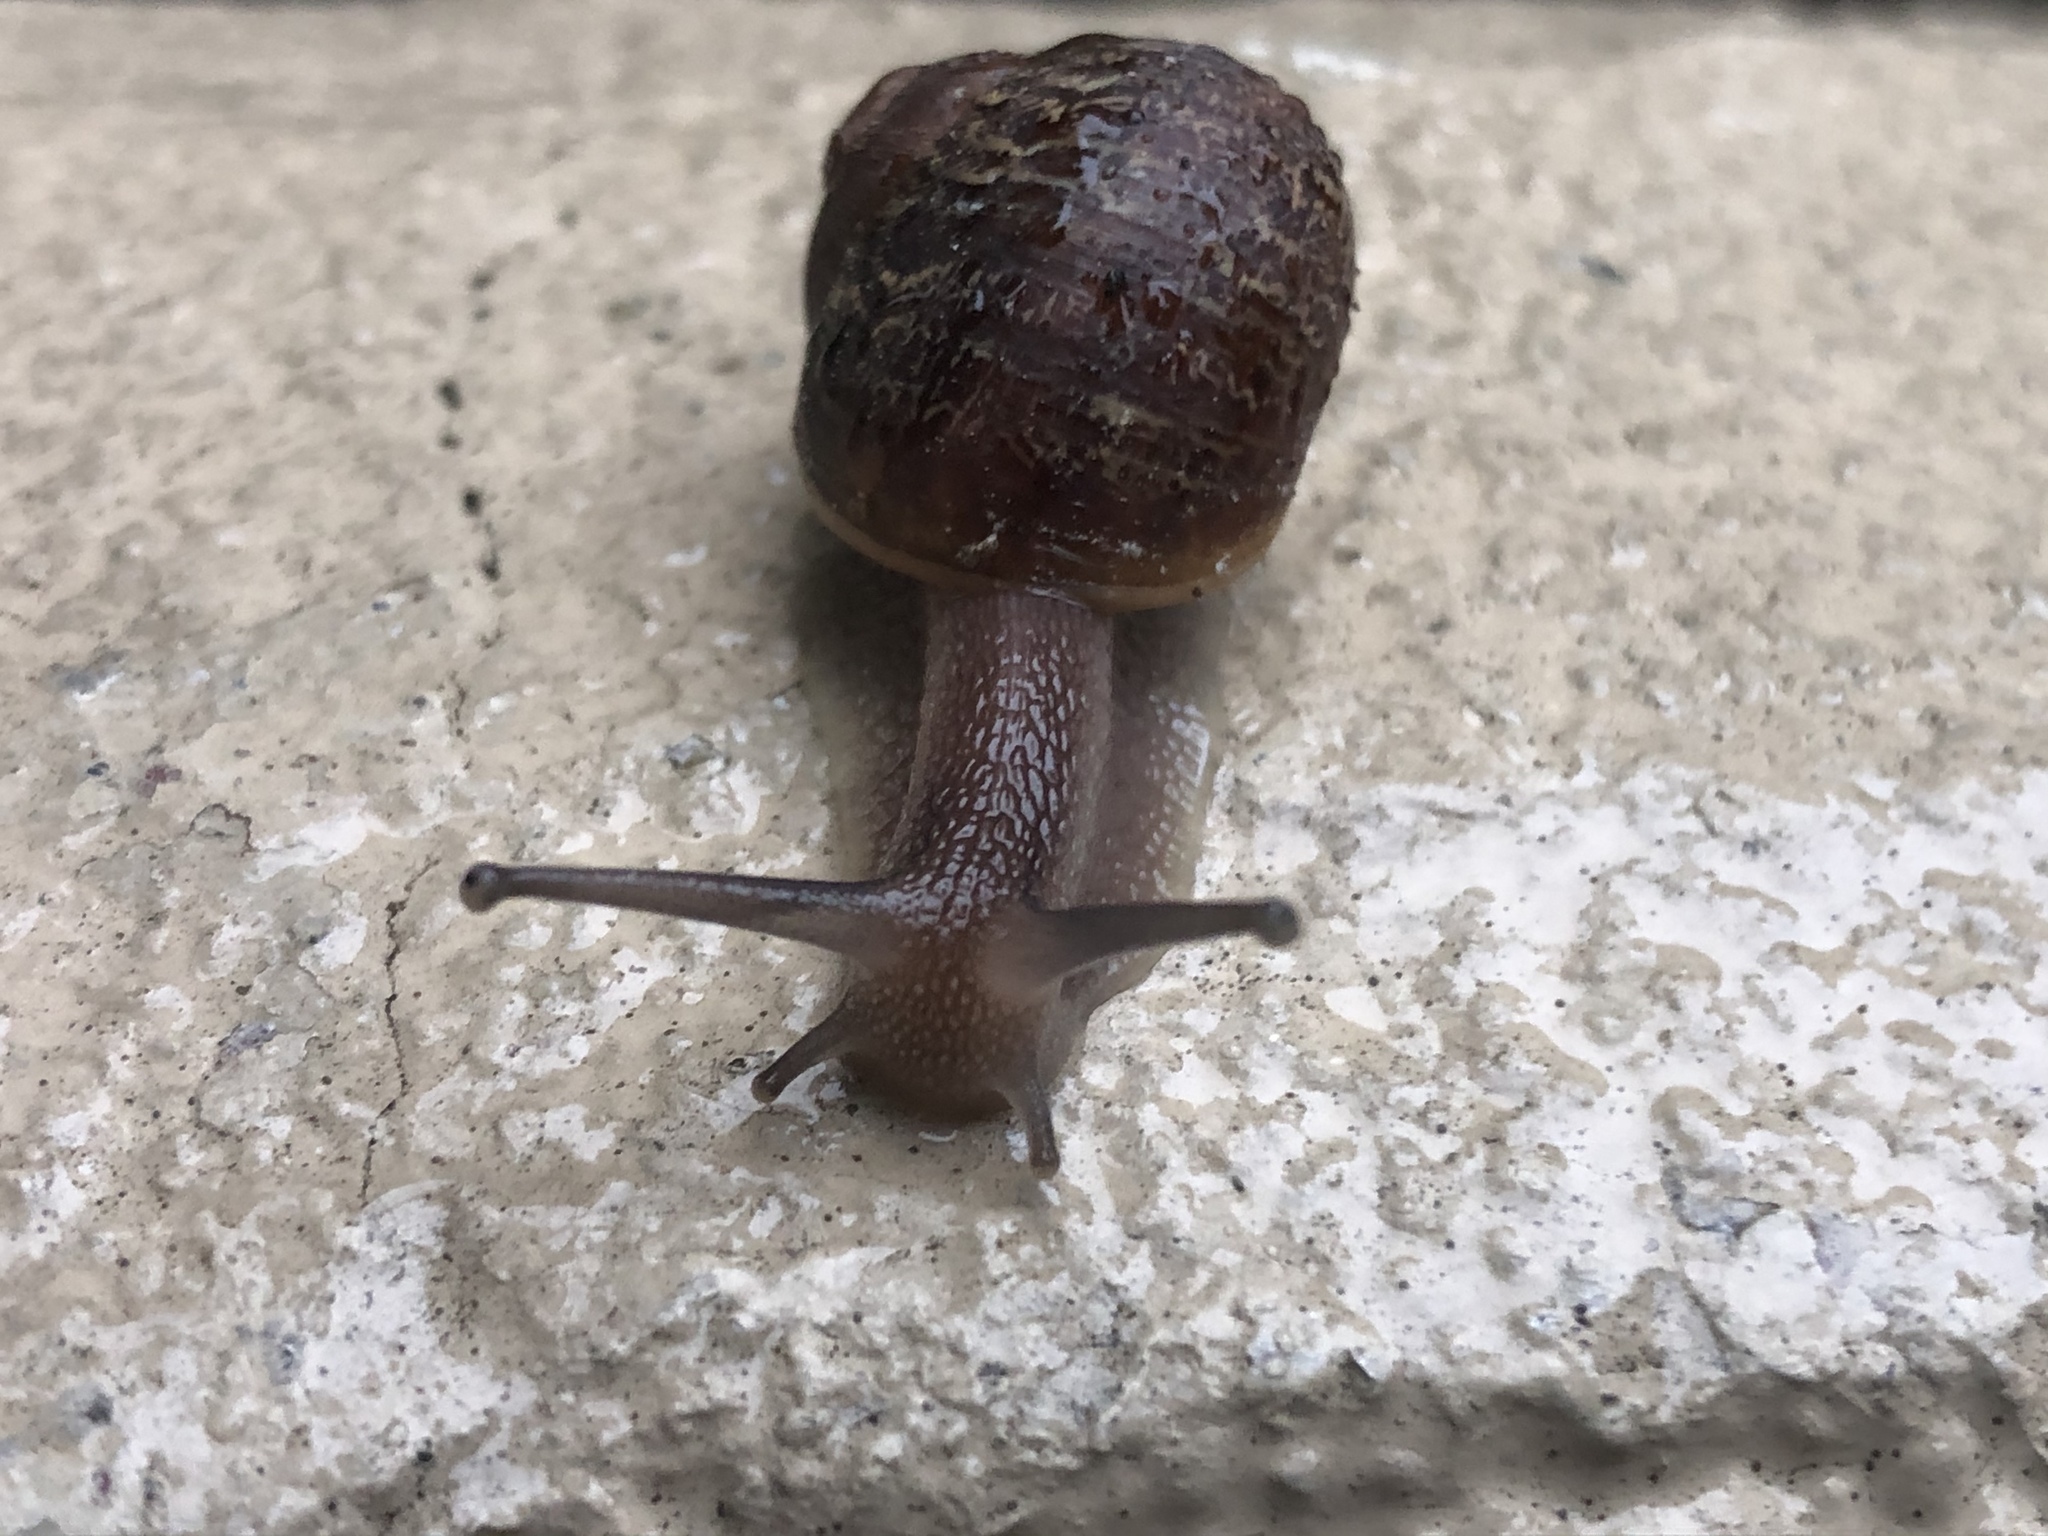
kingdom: Animalia
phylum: Mollusca
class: Gastropoda
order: Stylommatophora
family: Helicidae
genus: Cornu
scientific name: Cornu aspersum
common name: Brown garden snail
